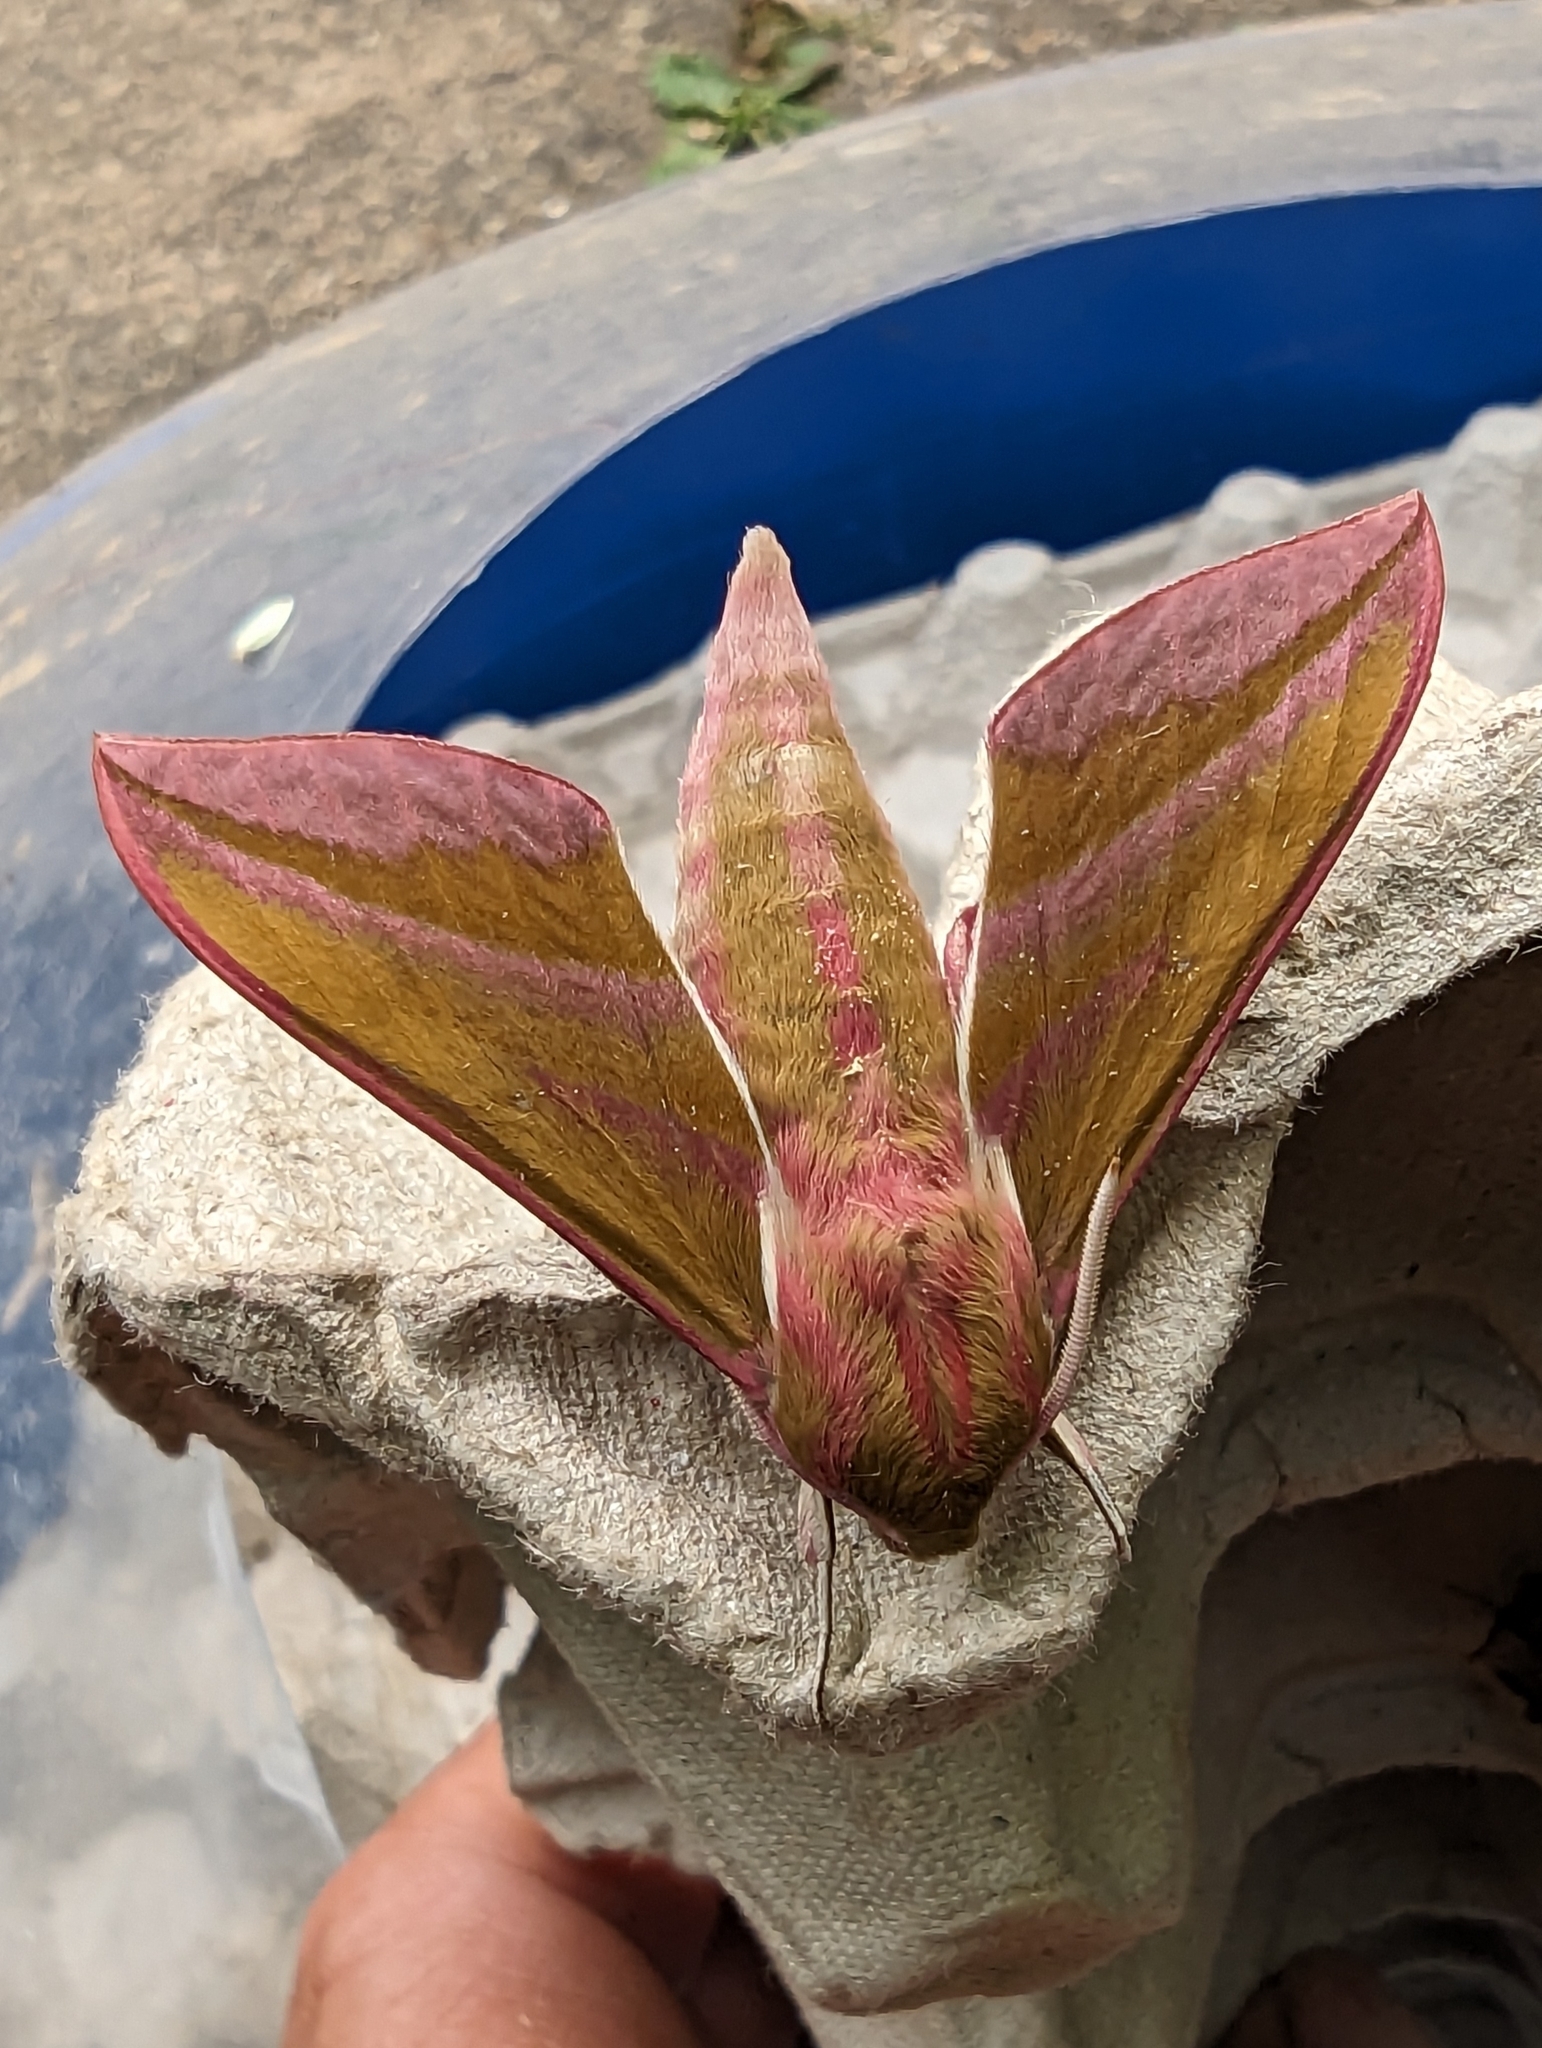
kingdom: Animalia
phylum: Arthropoda
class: Insecta
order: Lepidoptera
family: Sphingidae
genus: Deilephila
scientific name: Deilephila elpenor
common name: Elephant hawk-moth
